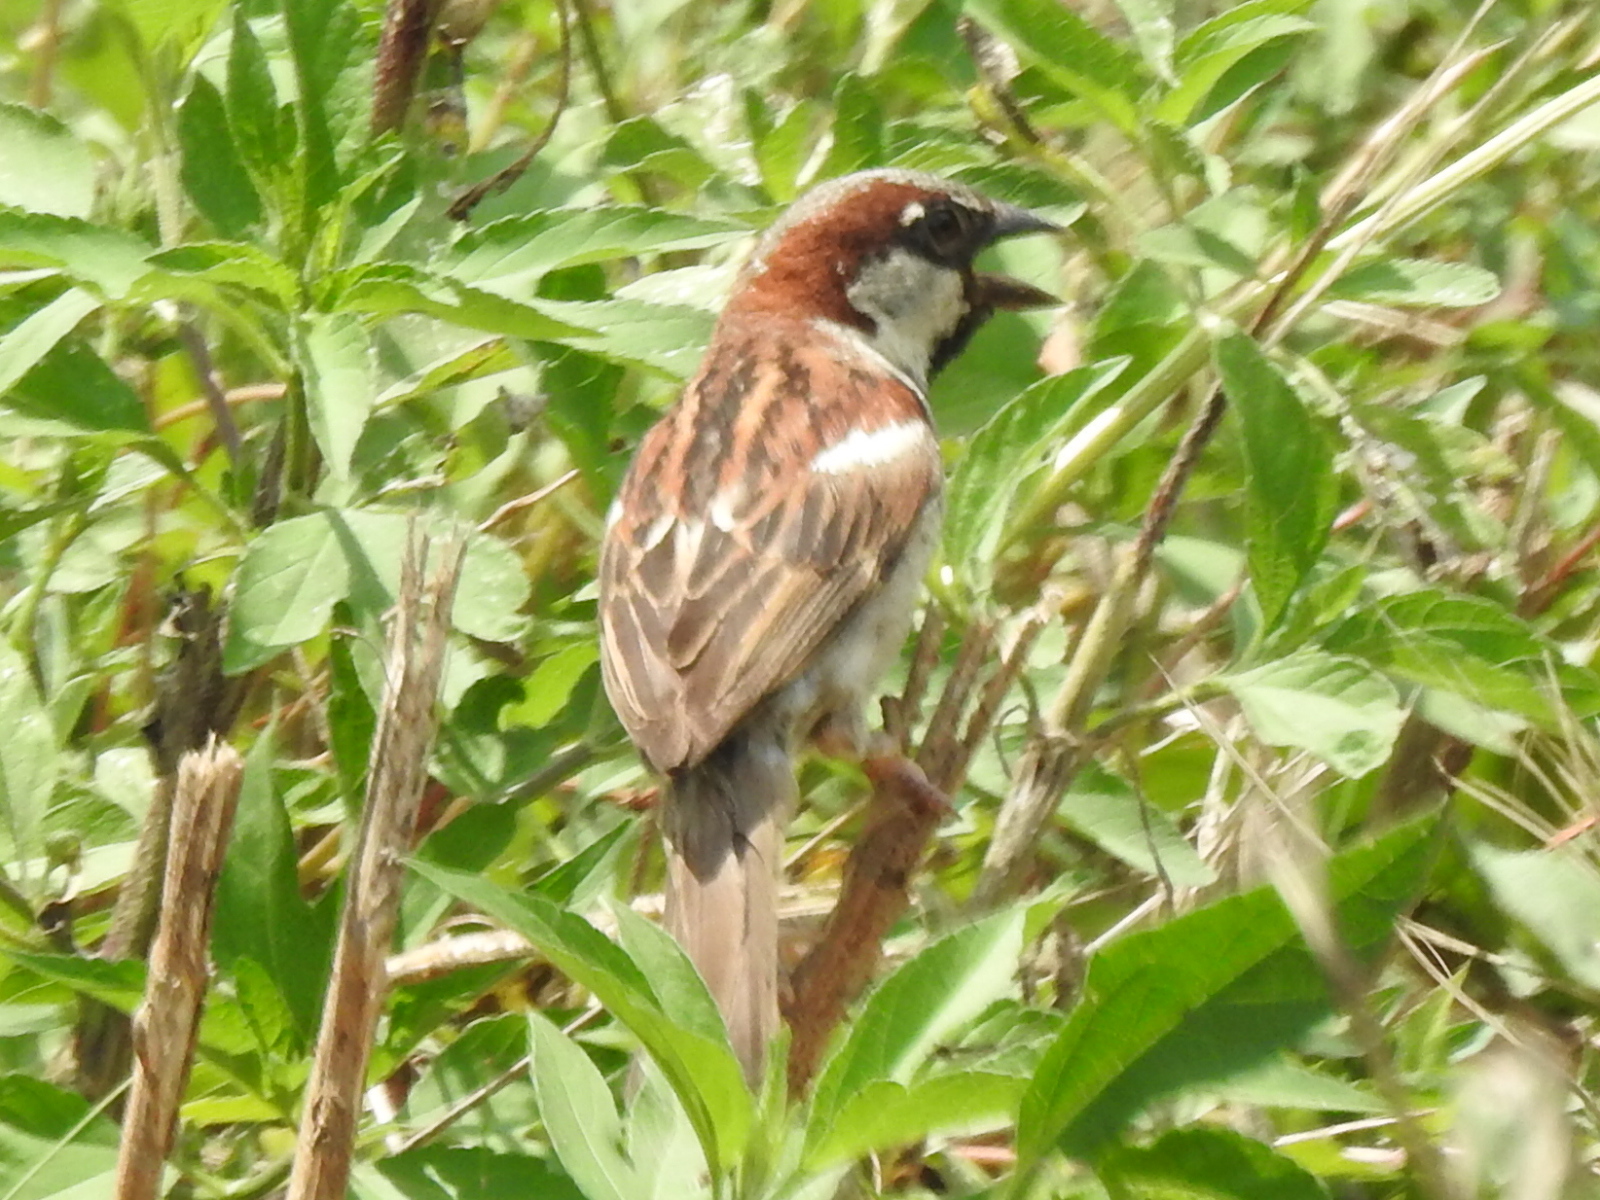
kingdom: Animalia
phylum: Chordata
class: Aves
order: Passeriformes
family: Passeridae
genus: Passer
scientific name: Passer domesticus
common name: House sparrow
